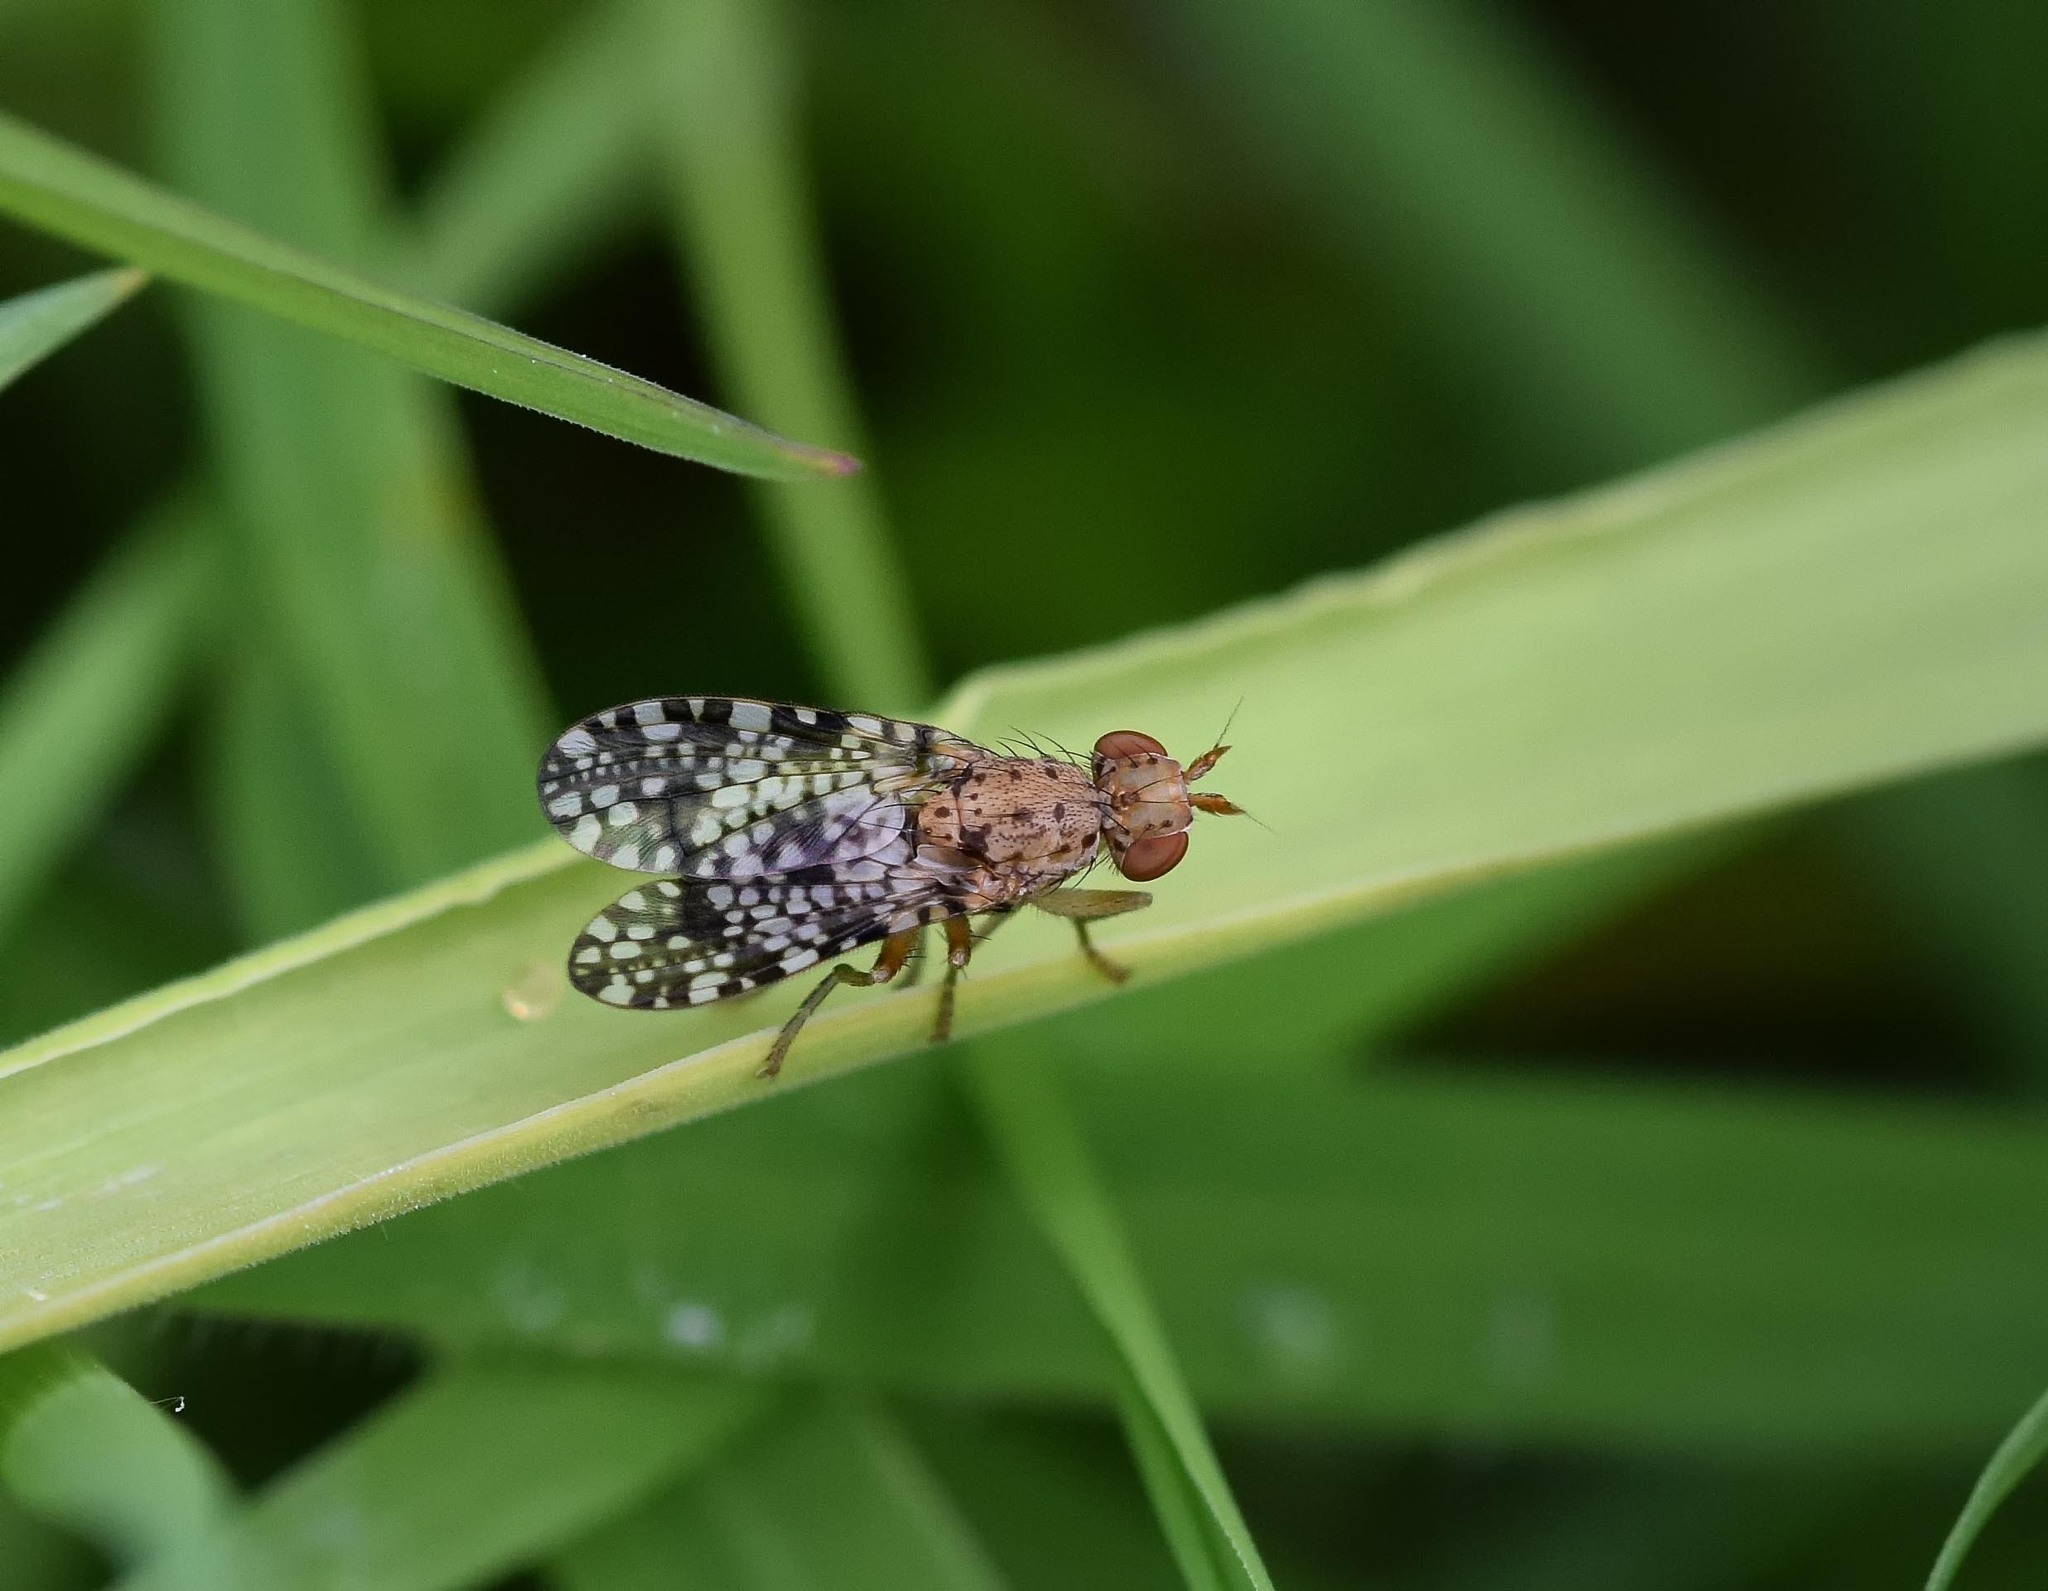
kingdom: Animalia
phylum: Arthropoda
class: Insecta
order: Diptera
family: Sciomyzidae
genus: Trypetoptera
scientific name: Trypetoptera punctulata
